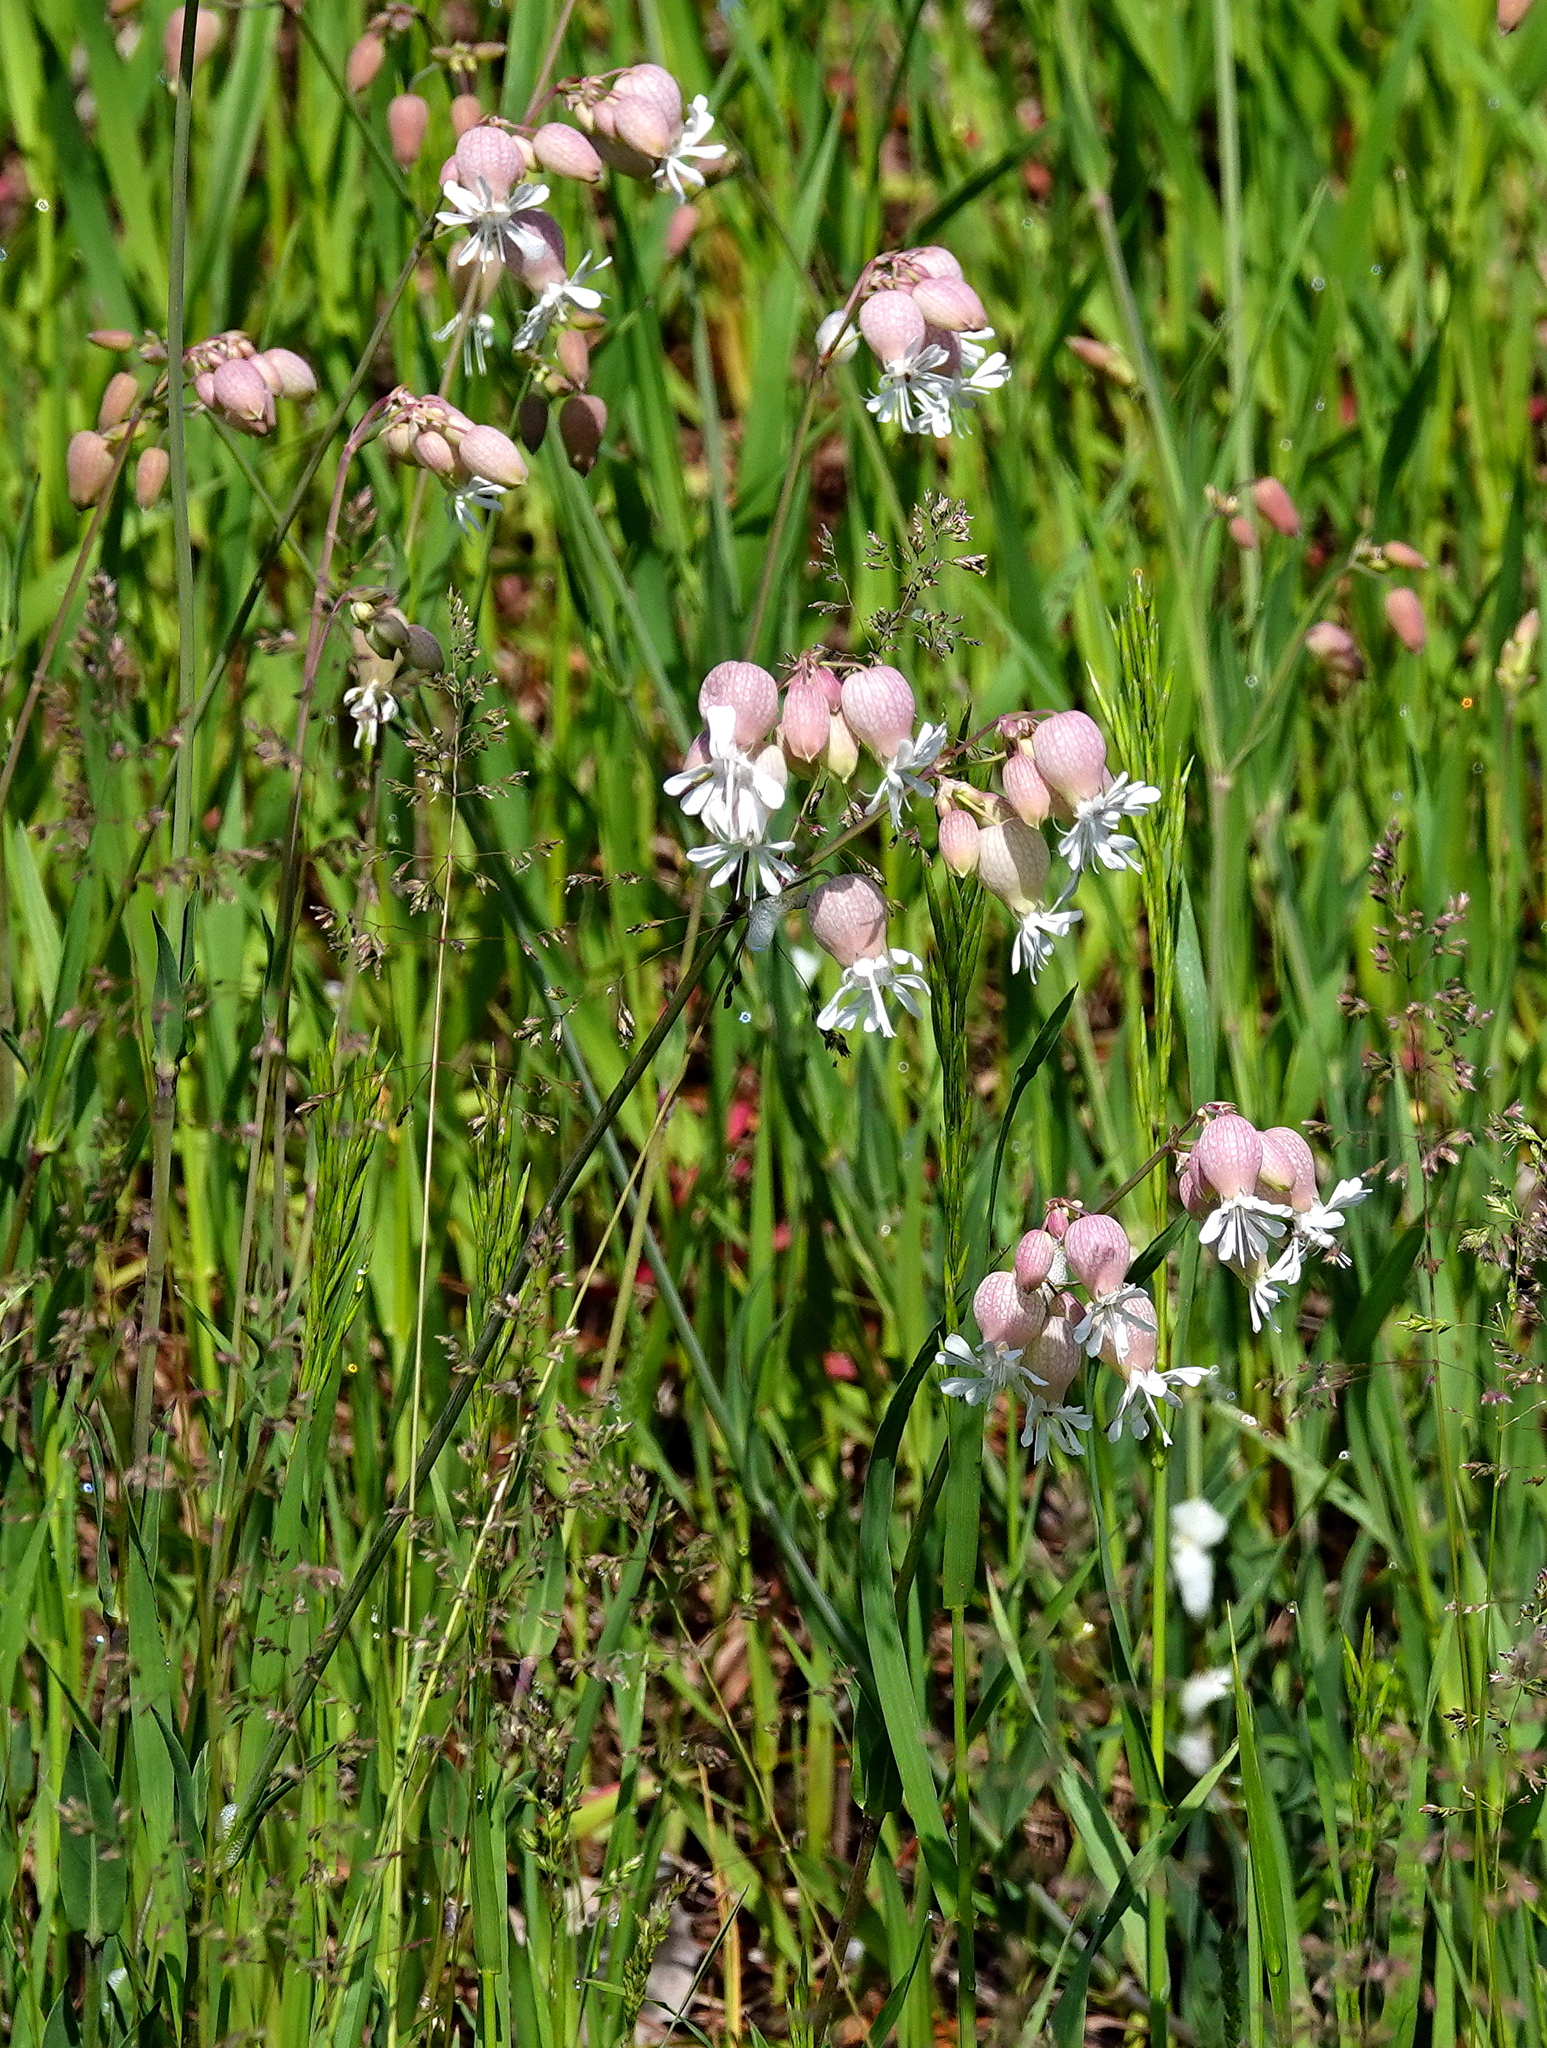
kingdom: Plantae
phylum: Tracheophyta
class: Magnoliopsida
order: Caryophyllales
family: Caryophyllaceae
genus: Silene
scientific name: Silene vulgaris
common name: Bladder campion
